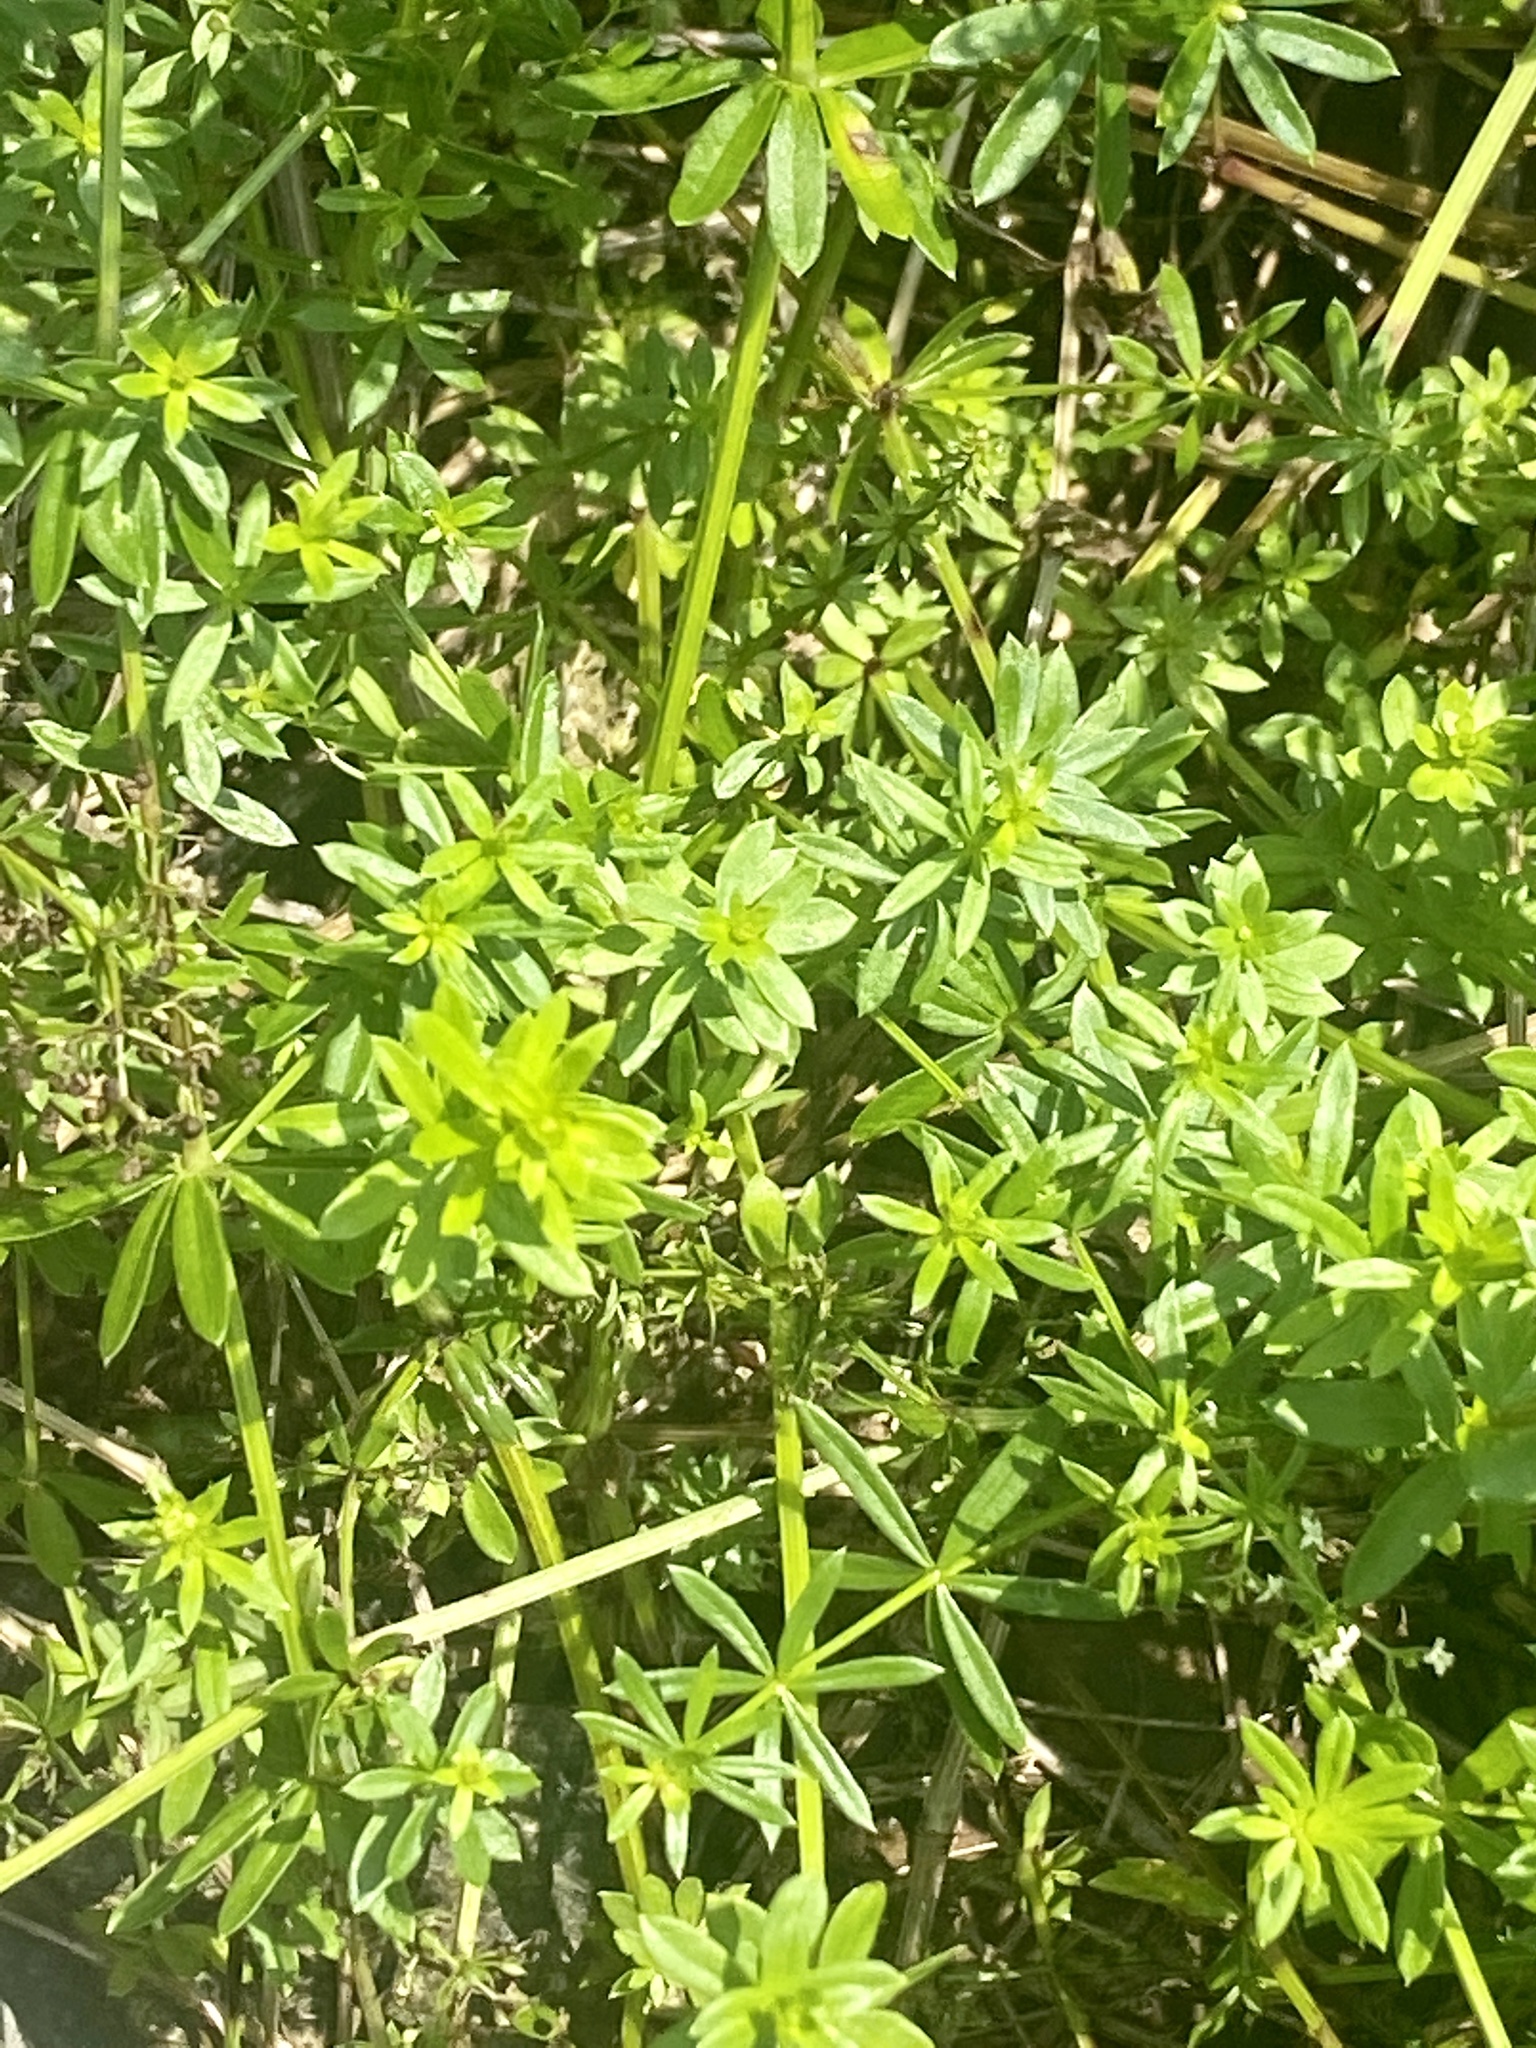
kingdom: Plantae
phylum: Tracheophyta
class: Magnoliopsida
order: Gentianales
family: Rubiaceae
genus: Galium
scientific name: Galium mollugo
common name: Hedge bedstraw
